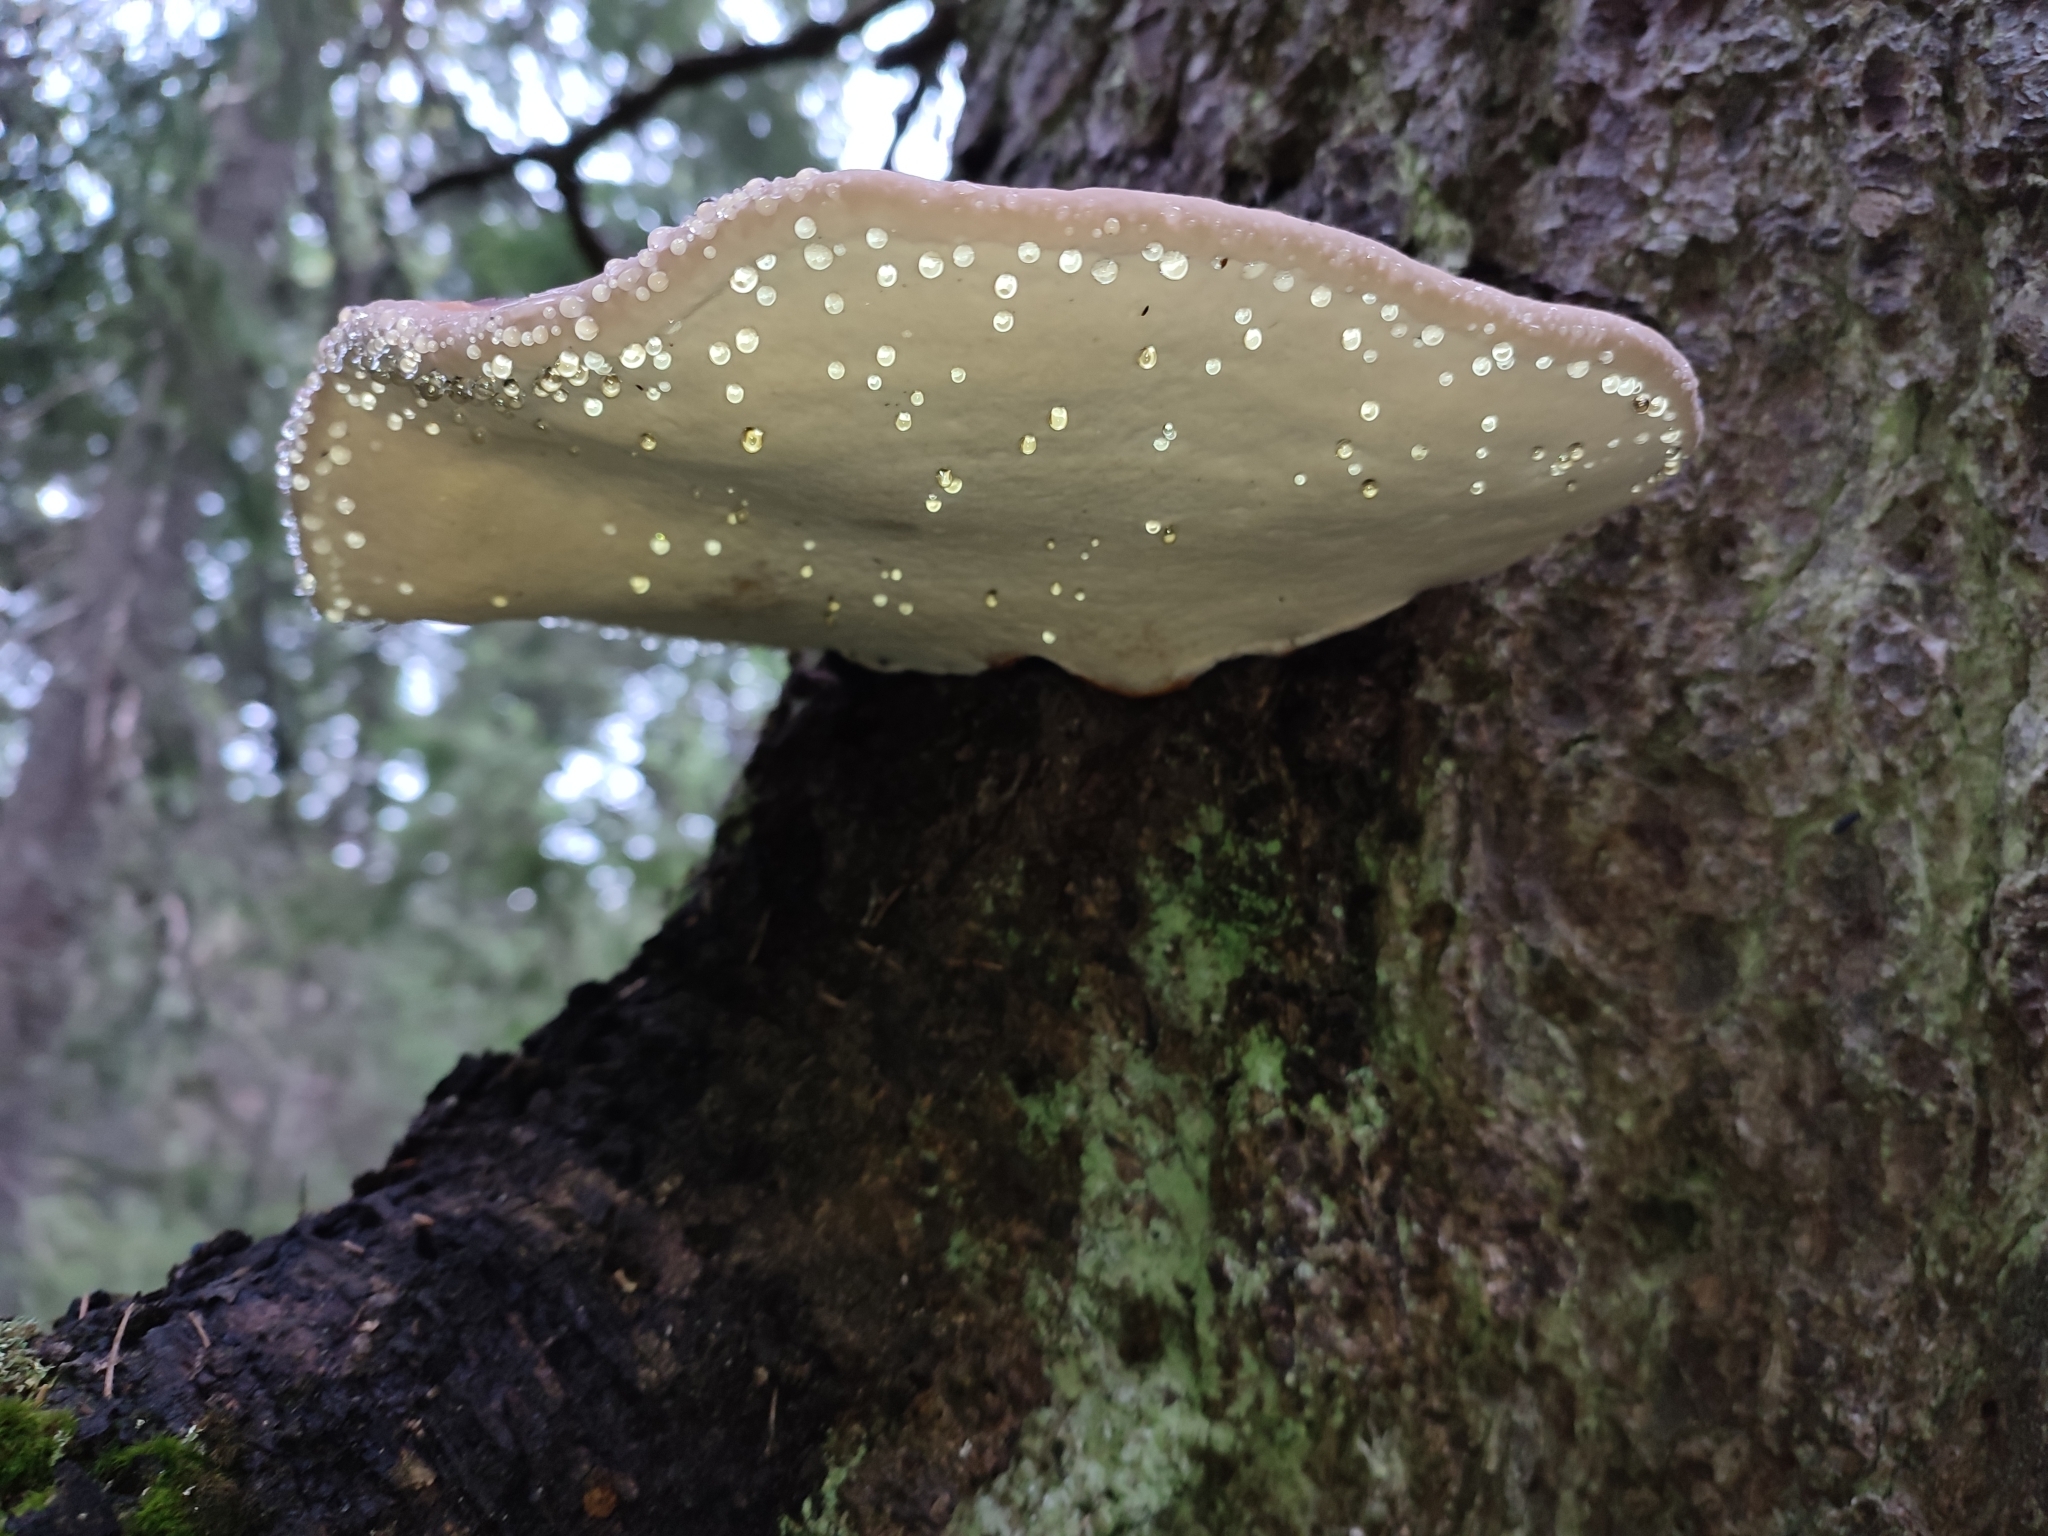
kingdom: Fungi
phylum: Basidiomycota
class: Agaricomycetes
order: Polyporales
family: Fomitopsidaceae
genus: Fomitopsis
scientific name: Fomitopsis pinicola
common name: Red-belted bracket
